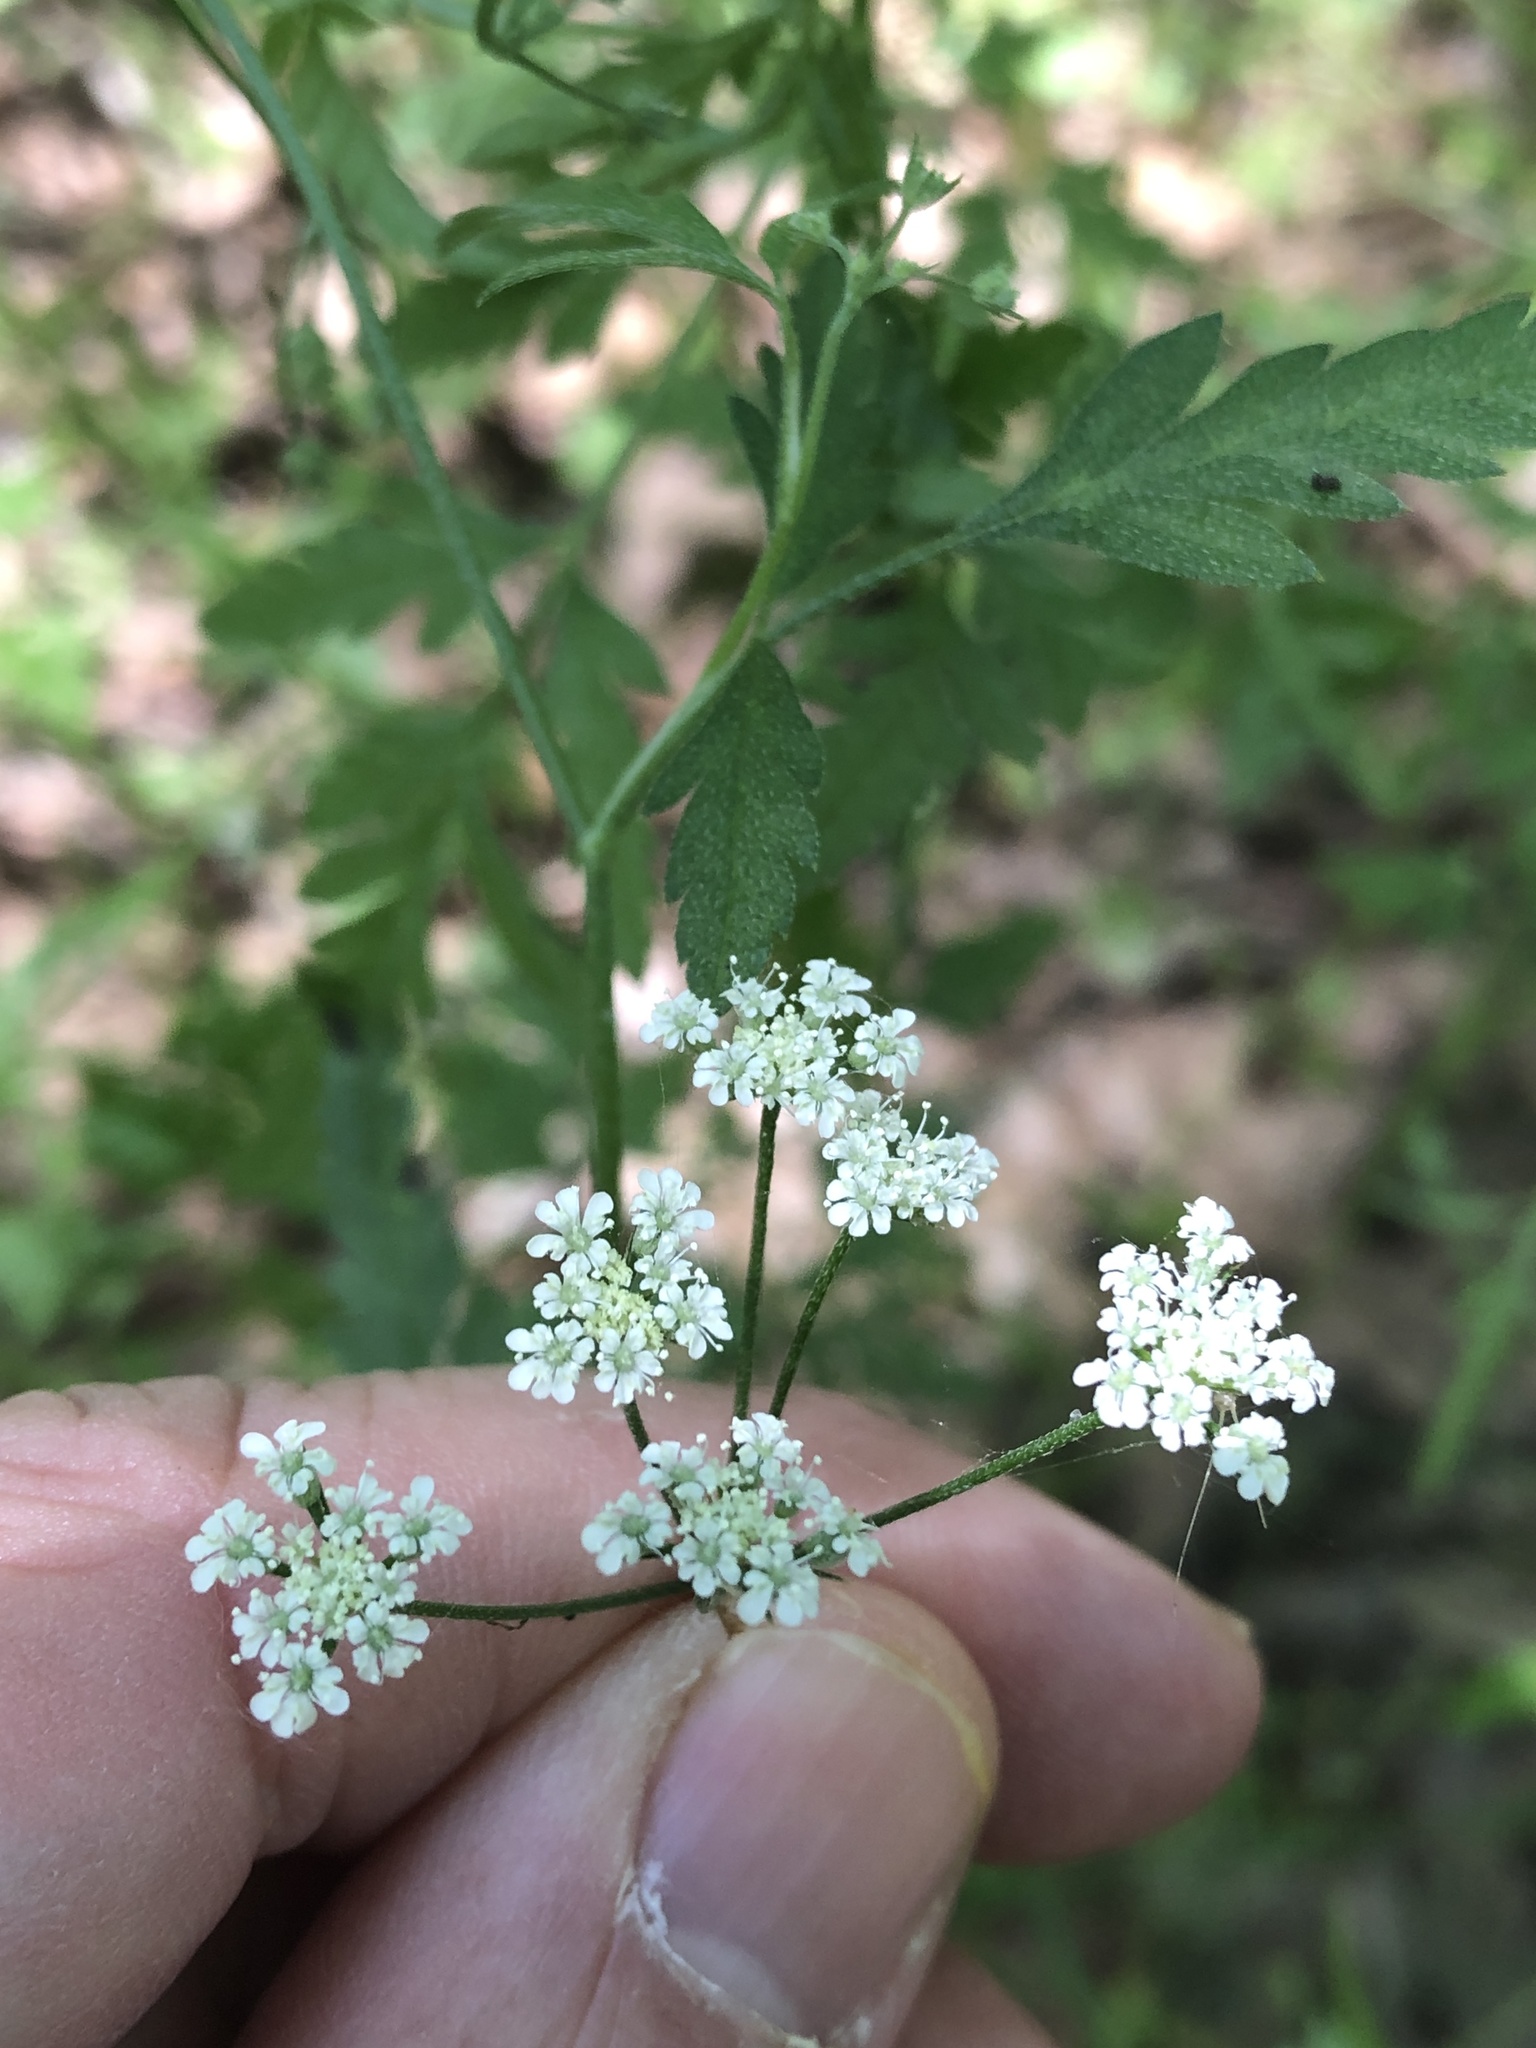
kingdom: Plantae
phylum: Tracheophyta
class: Magnoliopsida
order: Apiales
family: Apiaceae
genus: Torilis
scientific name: Torilis arvensis
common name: Spreading hedge-parsley
